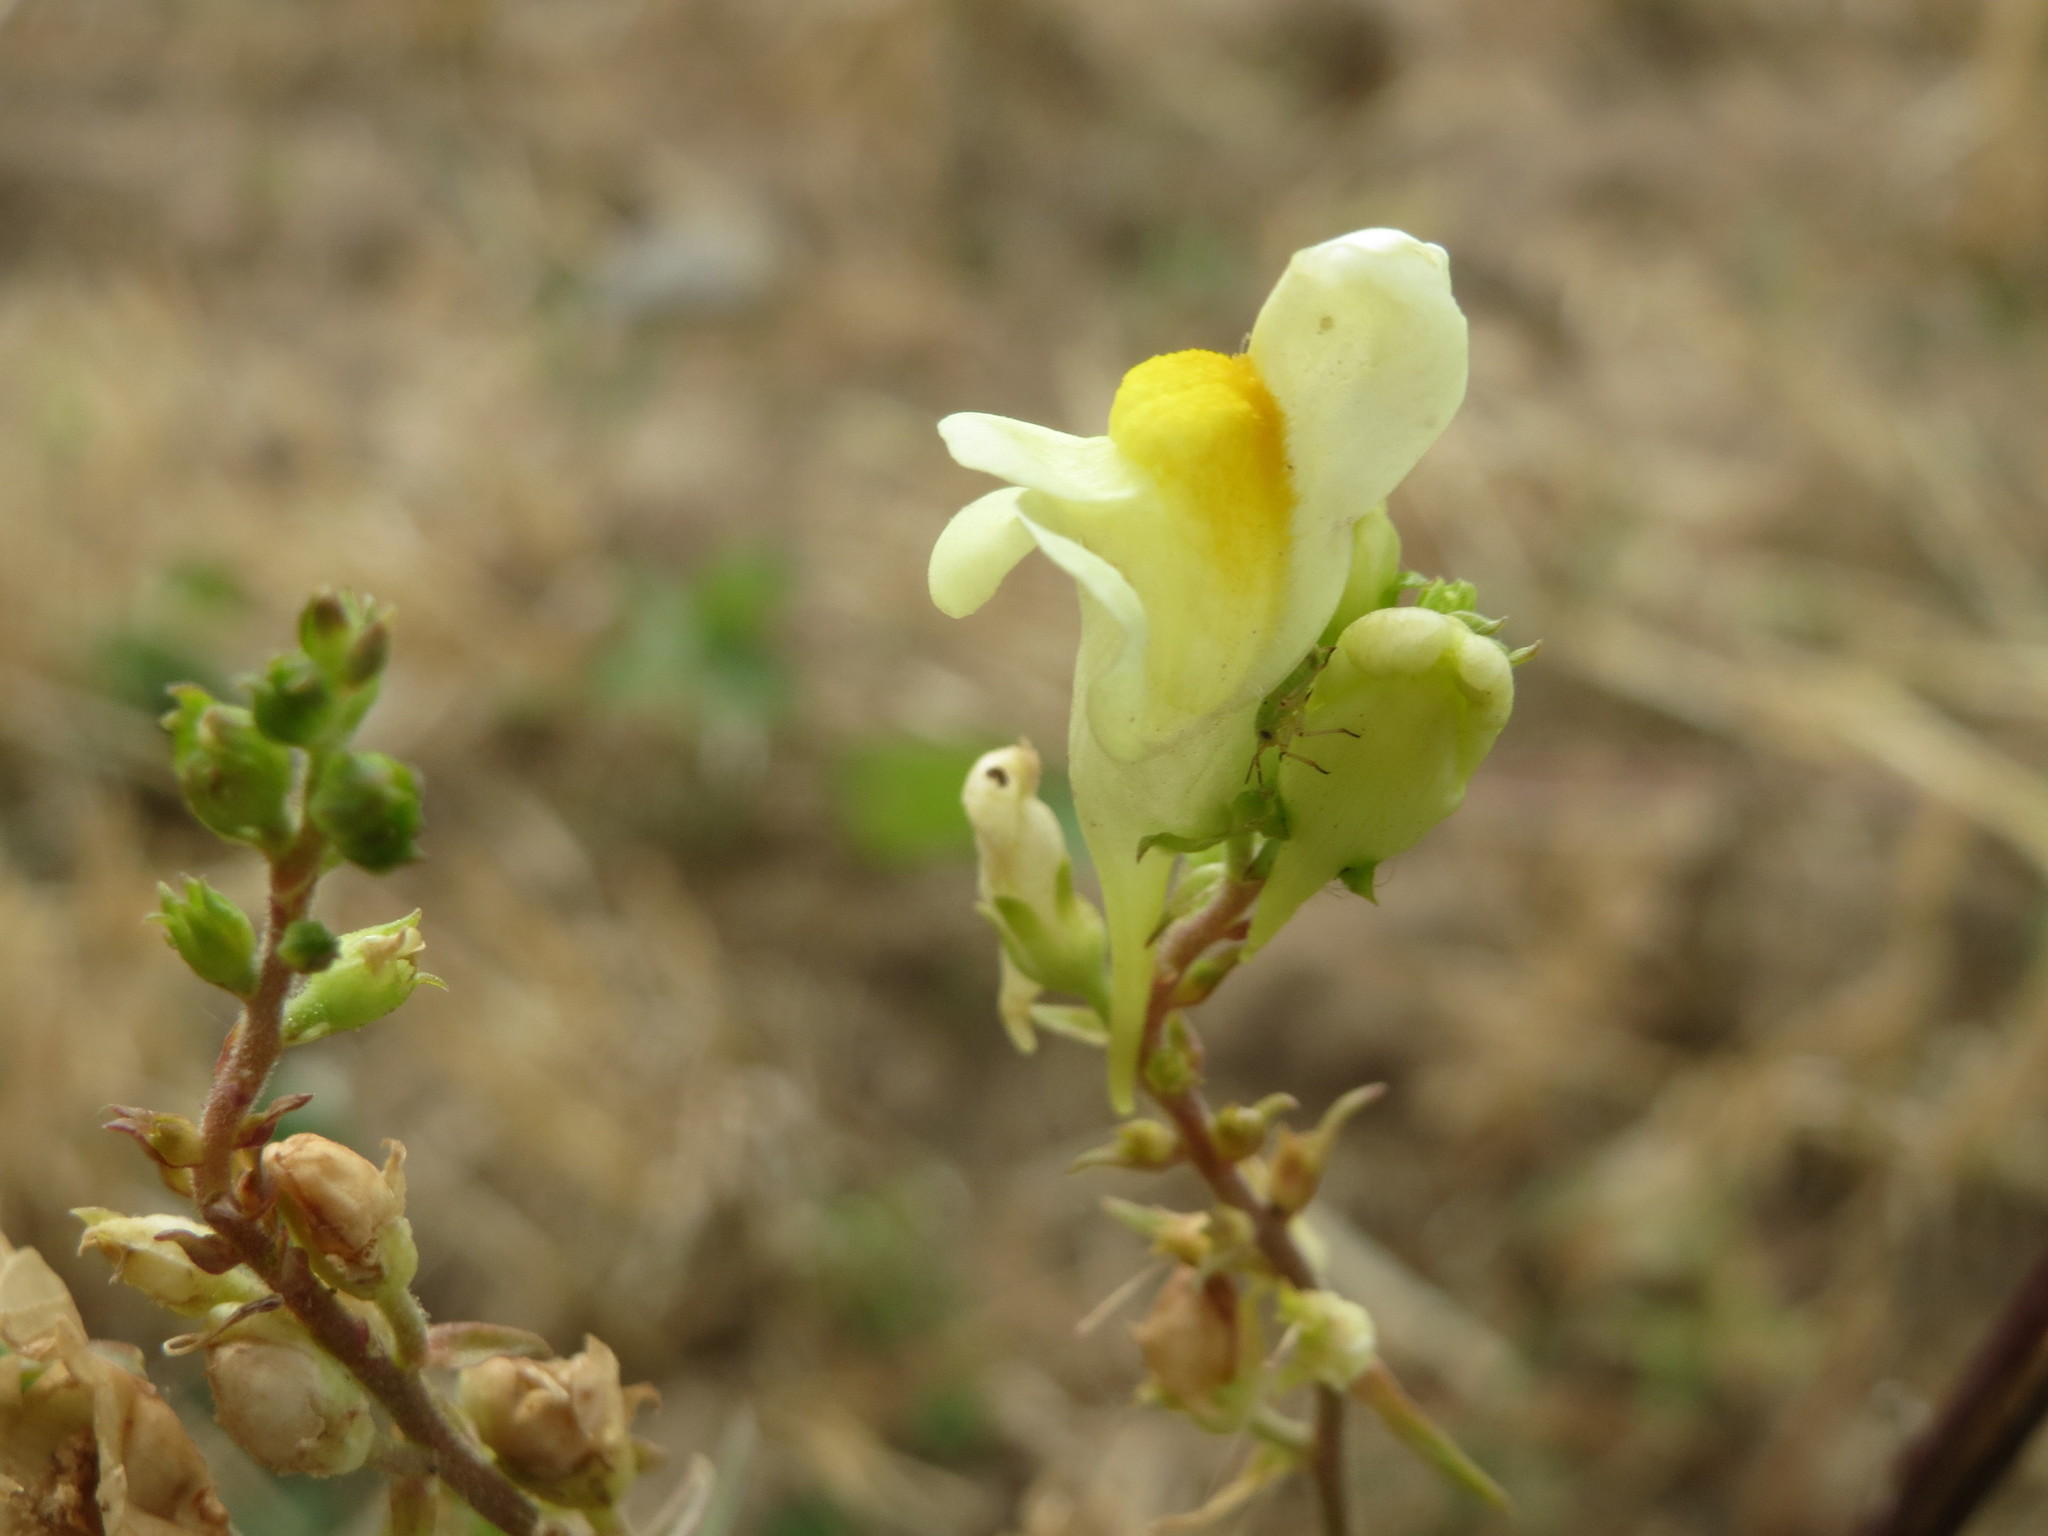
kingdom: Plantae
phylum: Tracheophyta
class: Magnoliopsida
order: Lamiales
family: Plantaginaceae
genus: Linaria
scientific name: Linaria vulgaris
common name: Butter and eggs
